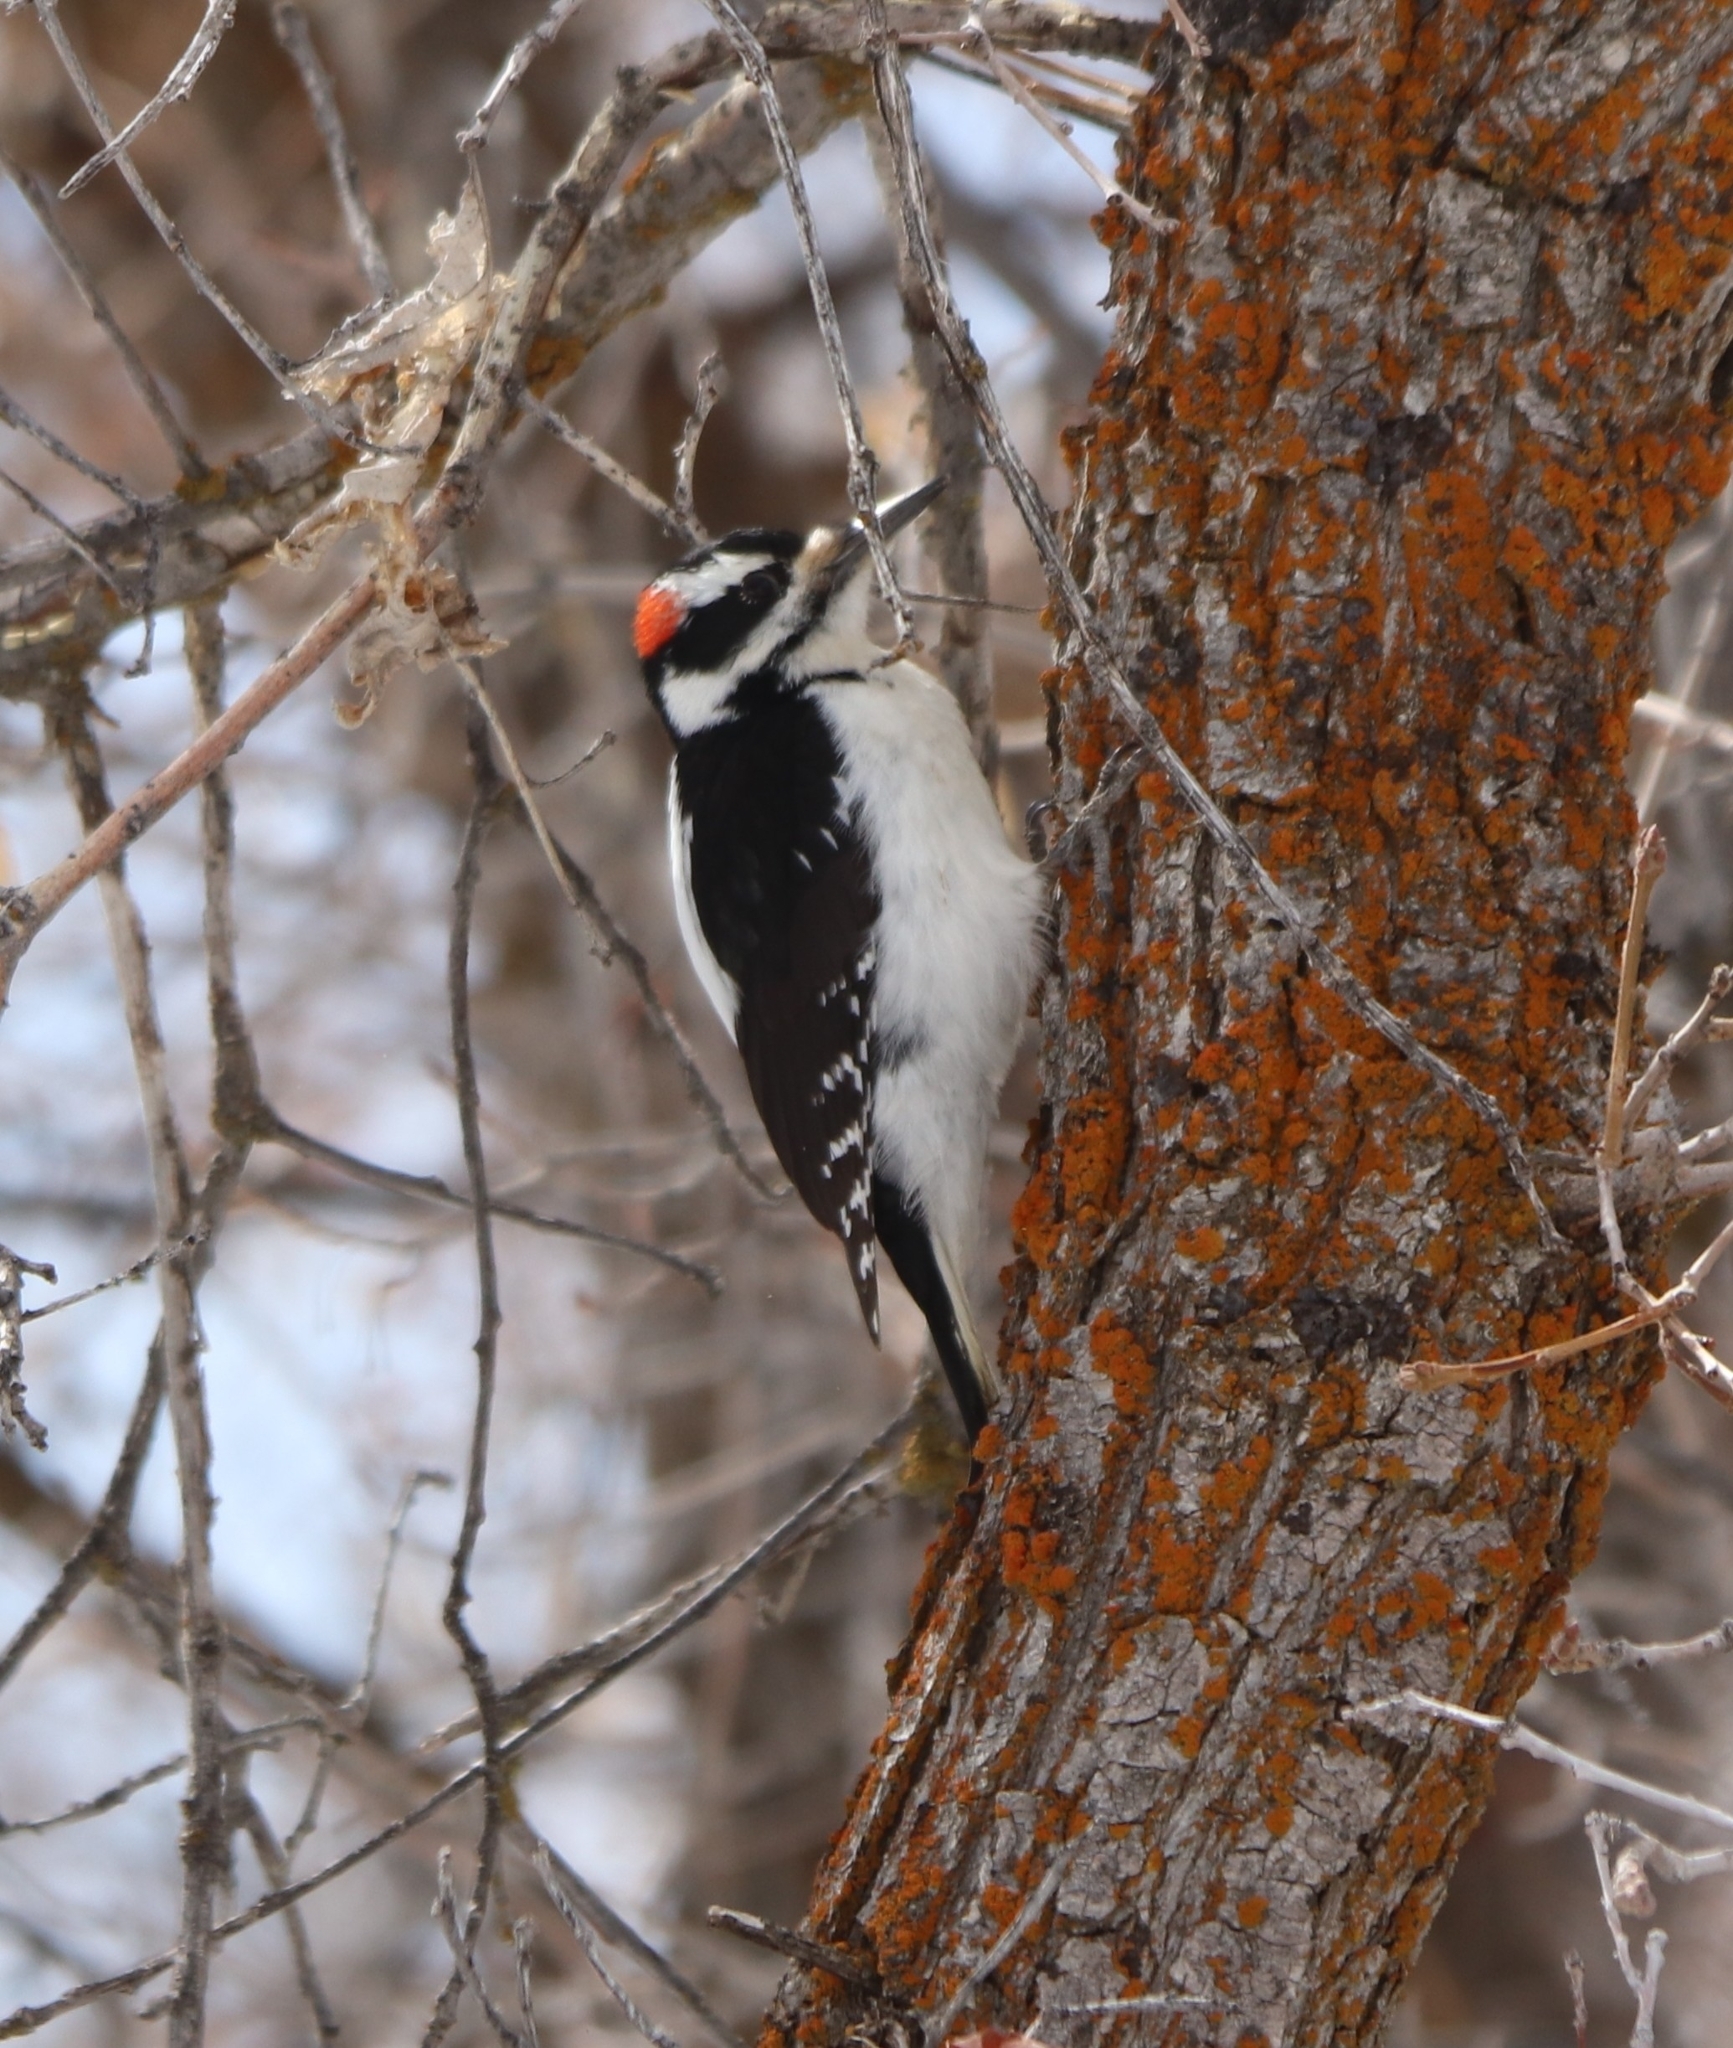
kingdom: Animalia
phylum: Chordata
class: Aves
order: Piciformes
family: Picidae
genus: Leuconotopicus
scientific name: Leuconotopicus villosus
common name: Hairy woodpecker
